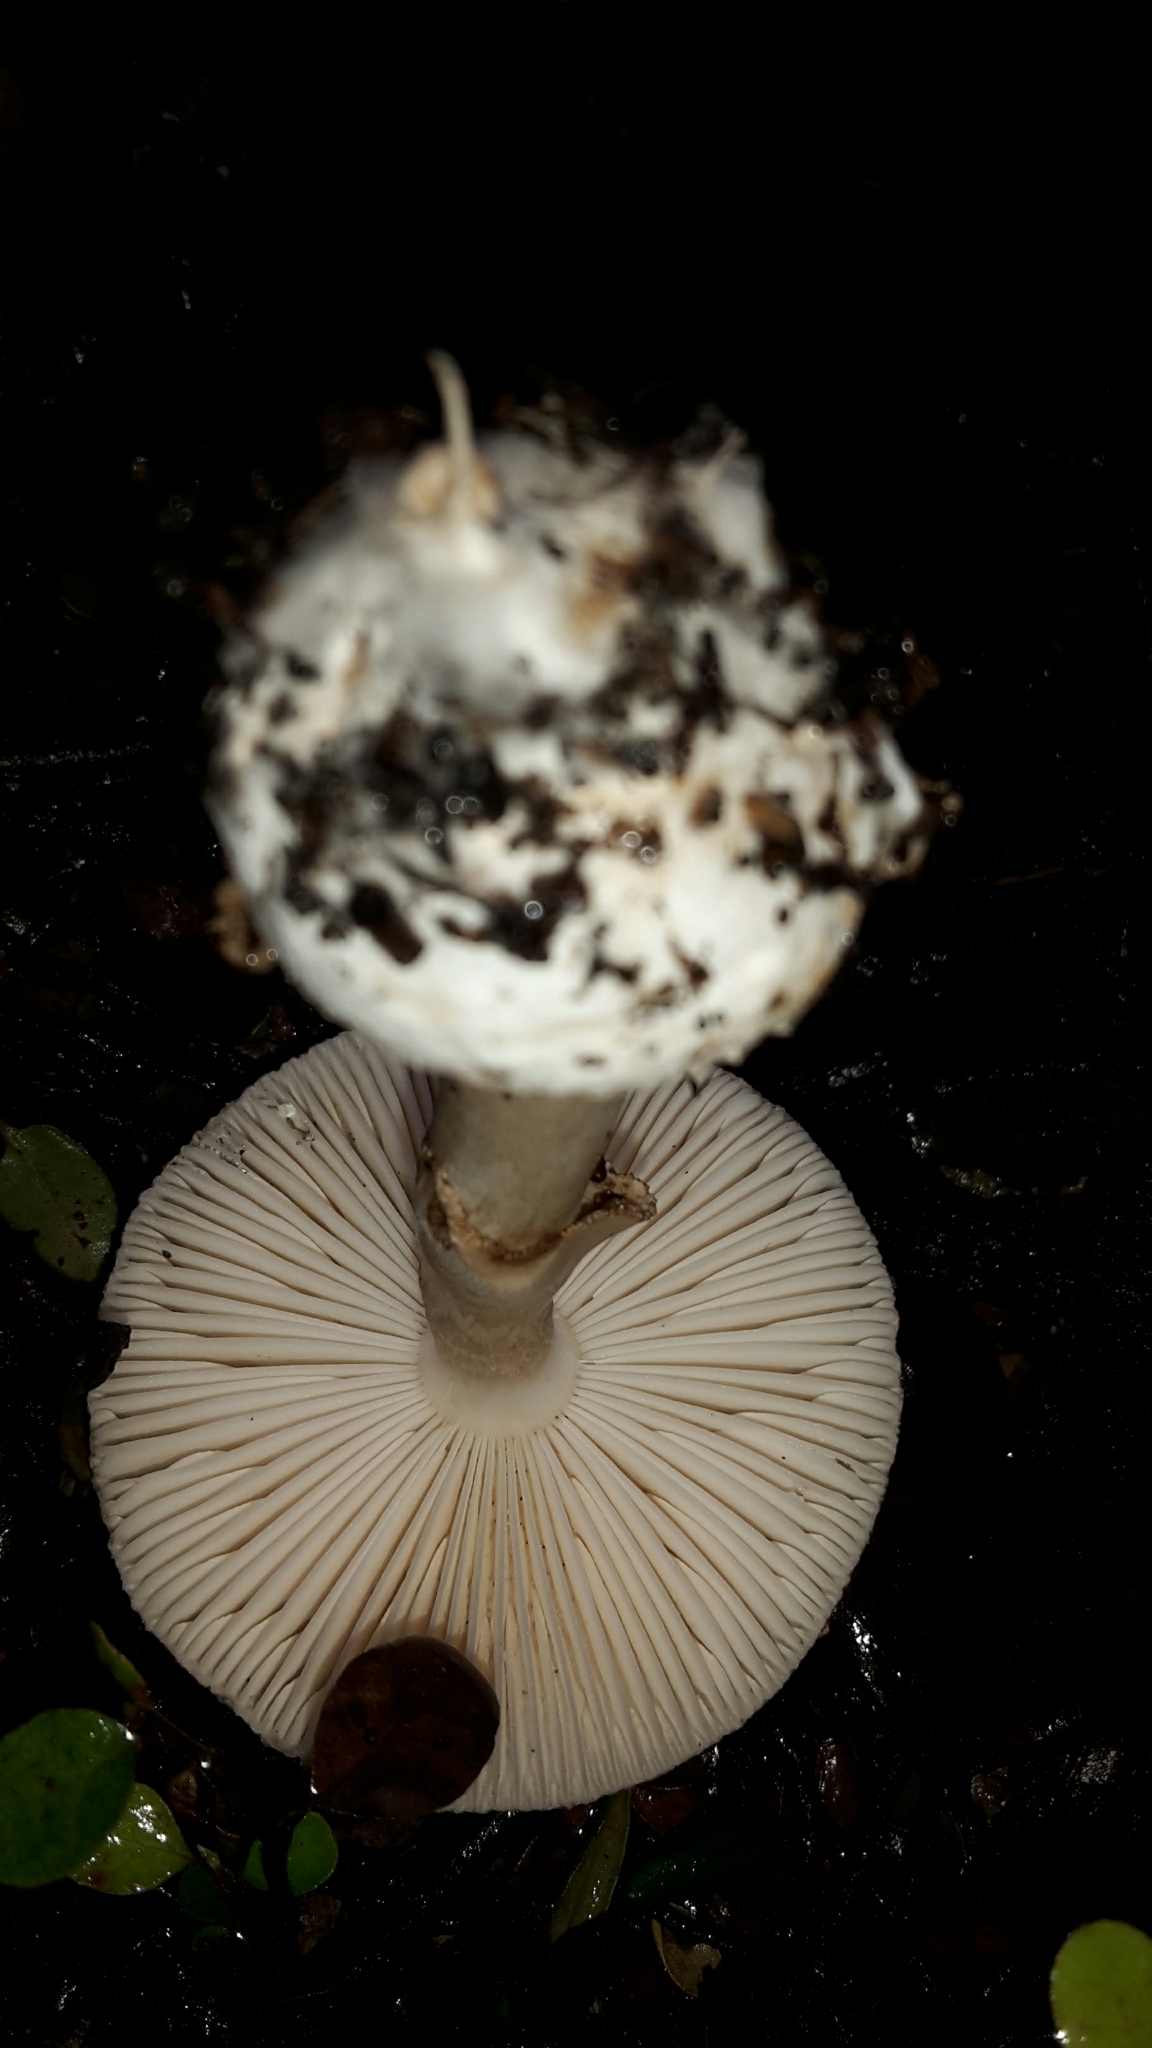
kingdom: Fungi
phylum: Basidiomycota
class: Agaricomycetes
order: Agaricales
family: Amanitaceae
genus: Amanita
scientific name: Amanita australis
